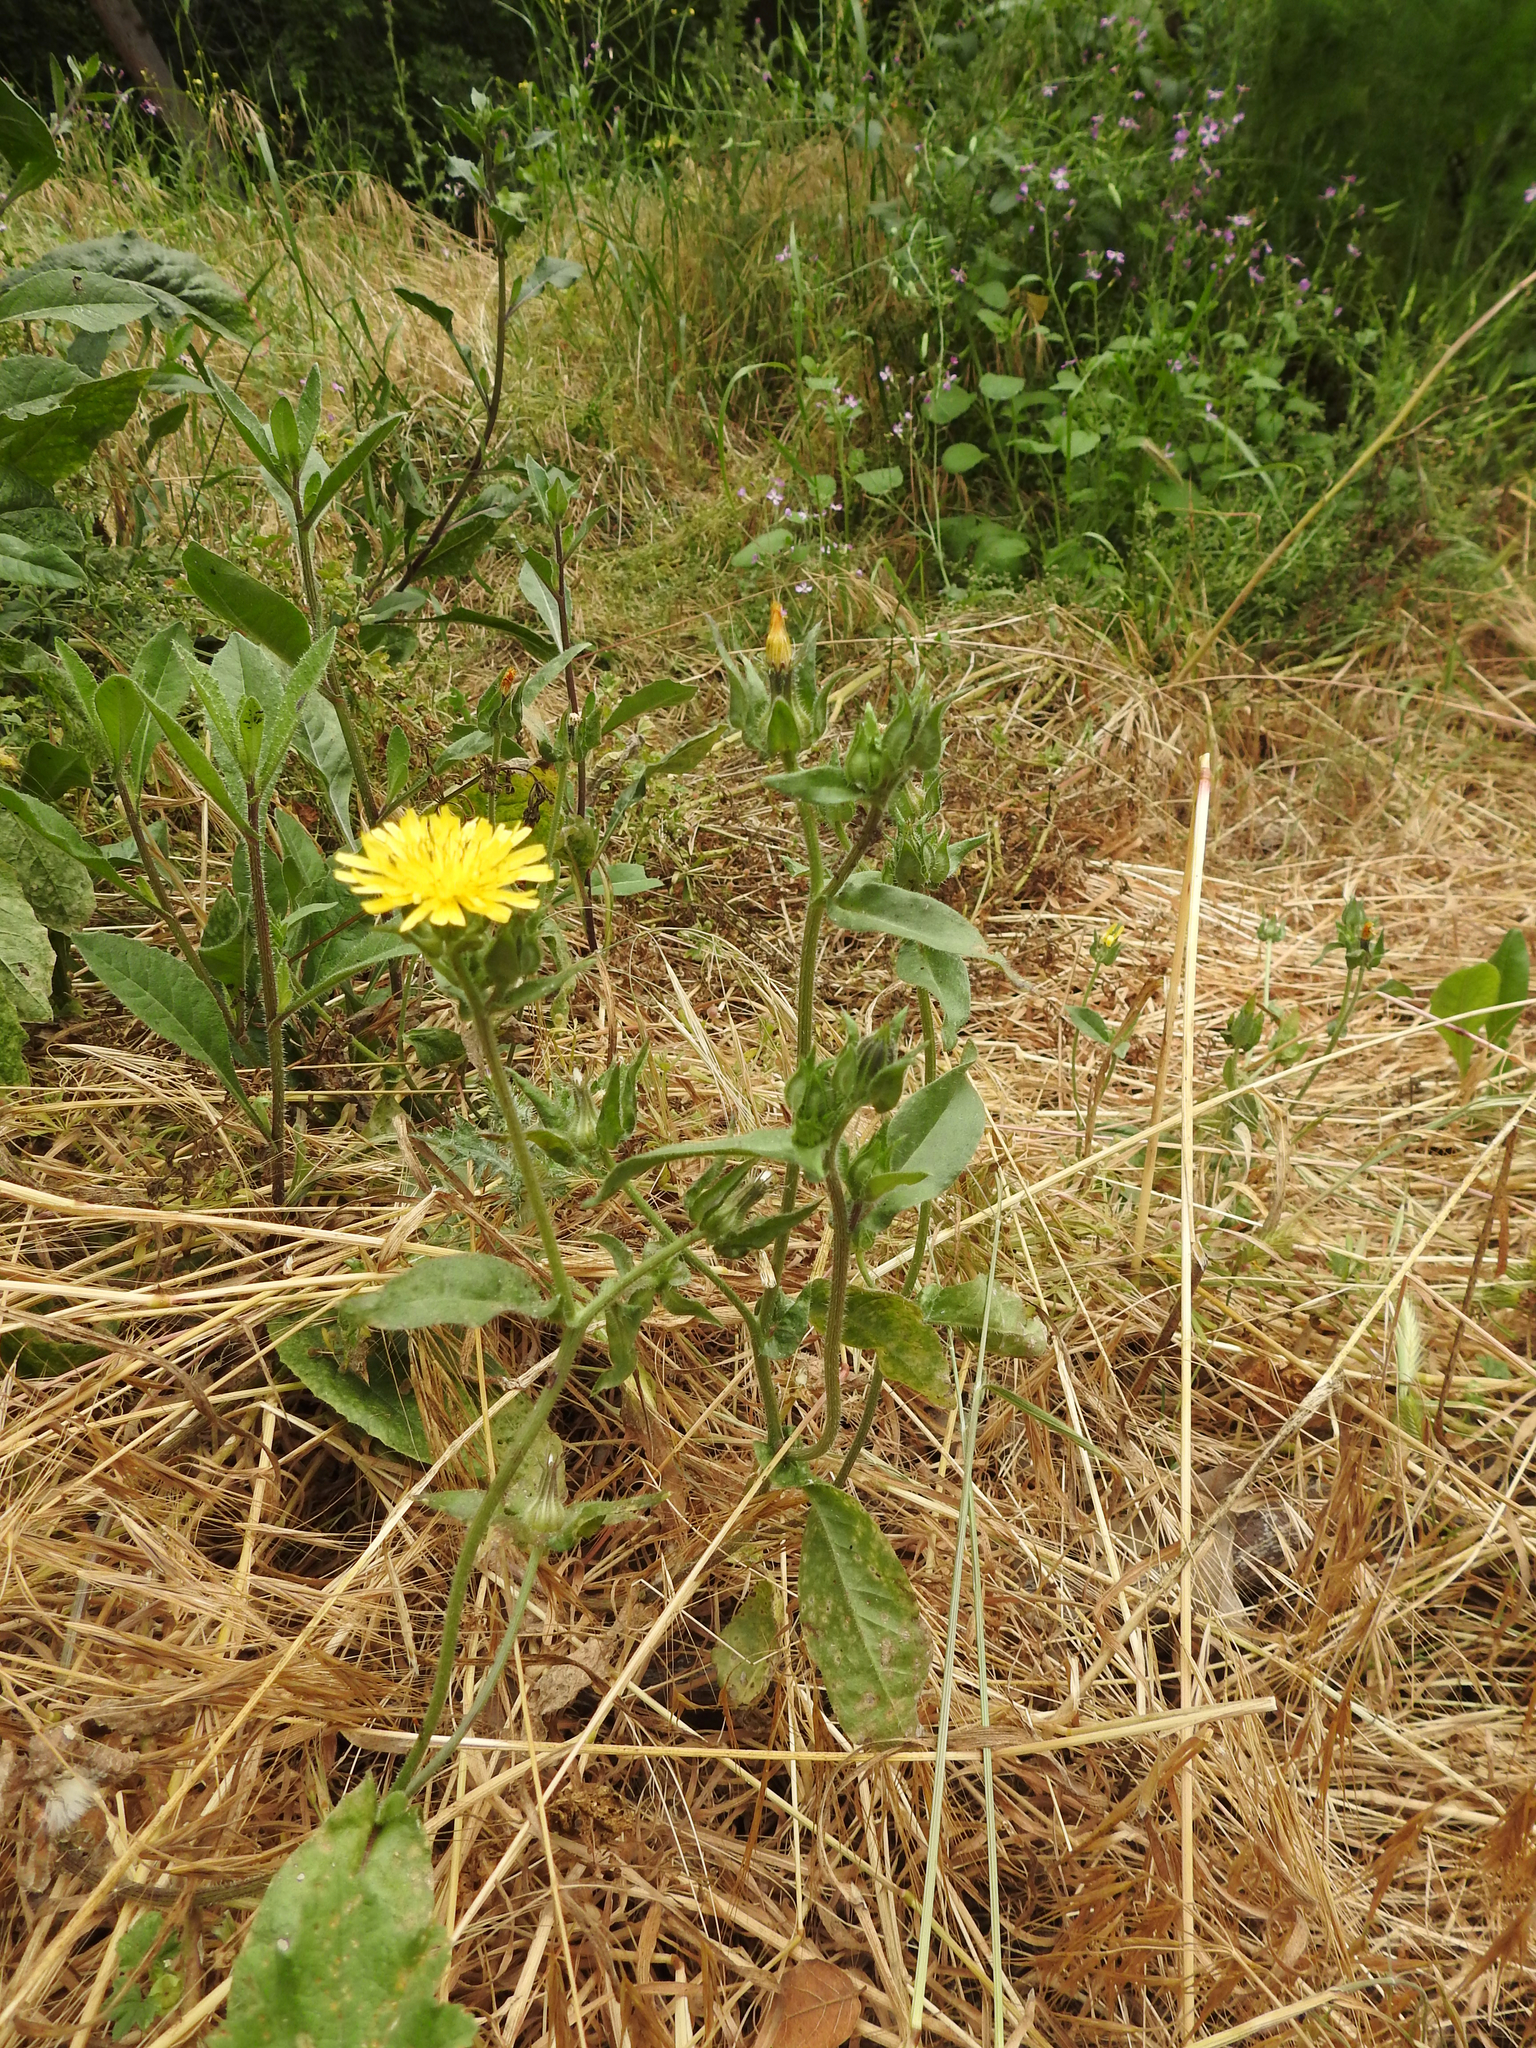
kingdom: Plantae
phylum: Tracheophyta
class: Magnoliopsida
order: Asterales
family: Asteraceae
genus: Helminthotheca
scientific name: Helminthotheca echioides
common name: Ox-tongue
